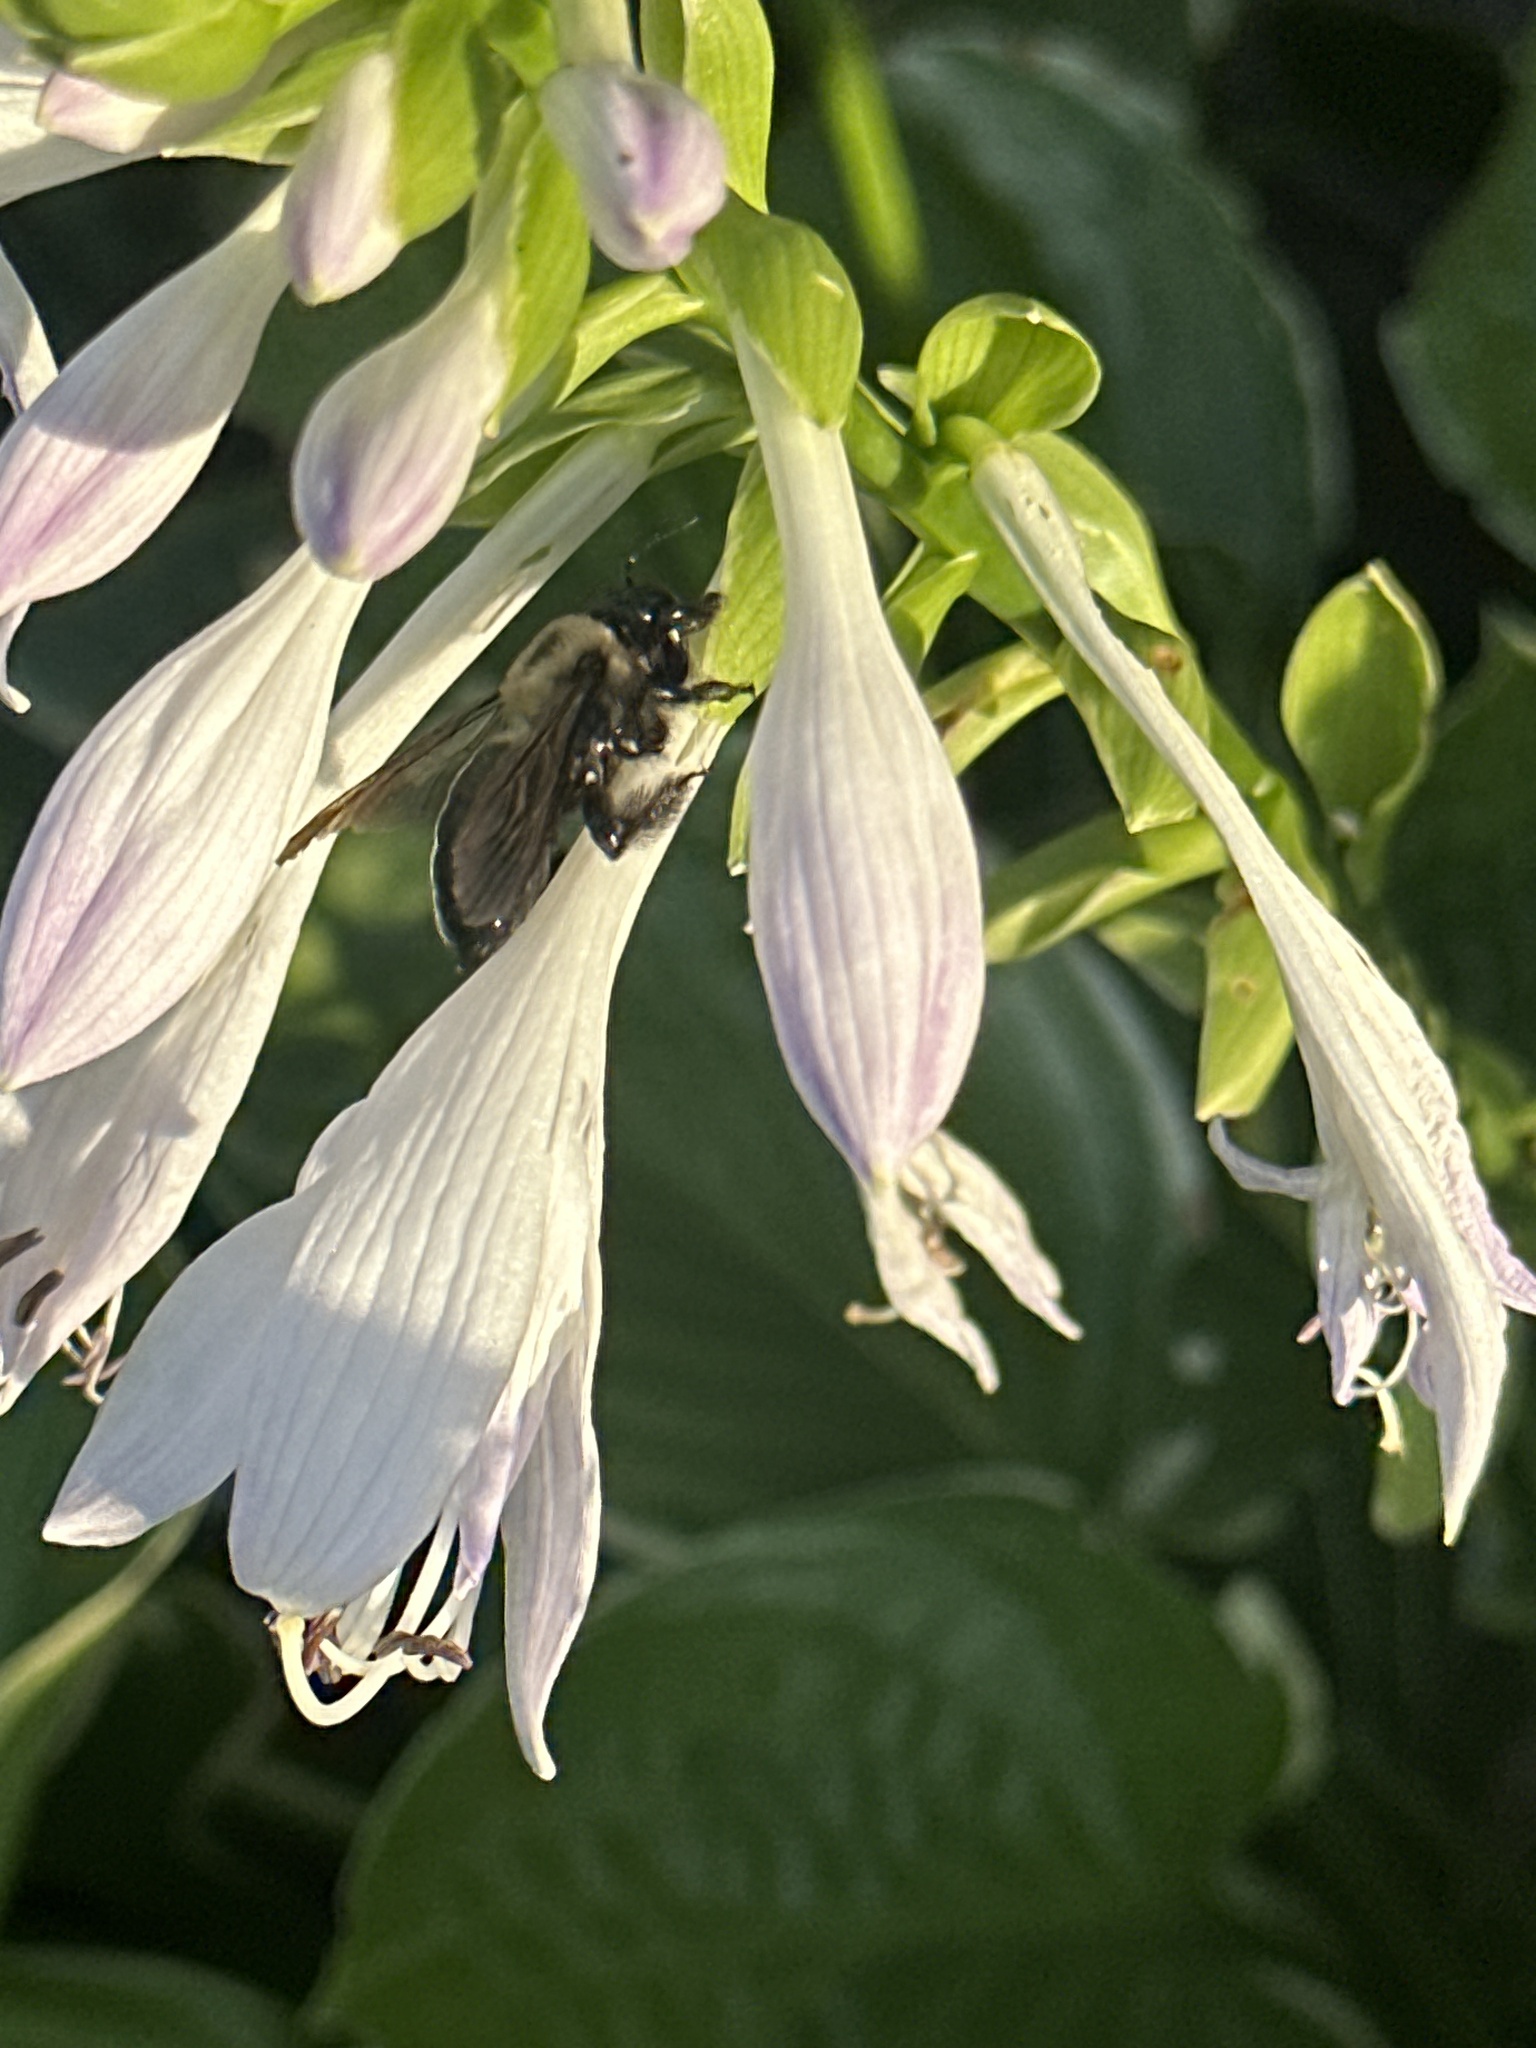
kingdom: Animalia
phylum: Arthropoda
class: Insecta
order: Hymenoptera
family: Apidae
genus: Xylocopa
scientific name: Xylocopa virginica
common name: Carpenter bee
